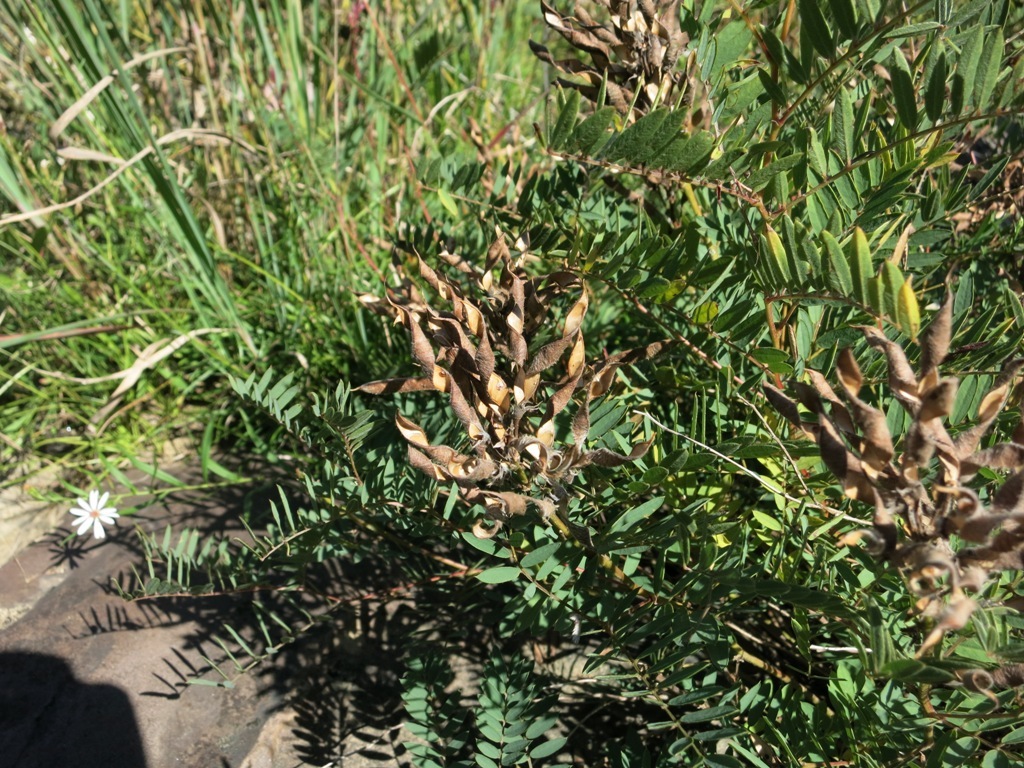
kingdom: Plantae
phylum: Tracheophyta
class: Magnoliopsida
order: Fabales
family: Fabaceae
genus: Tephrosia
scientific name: Tephrosia virginiana
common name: Rabbit-pea
